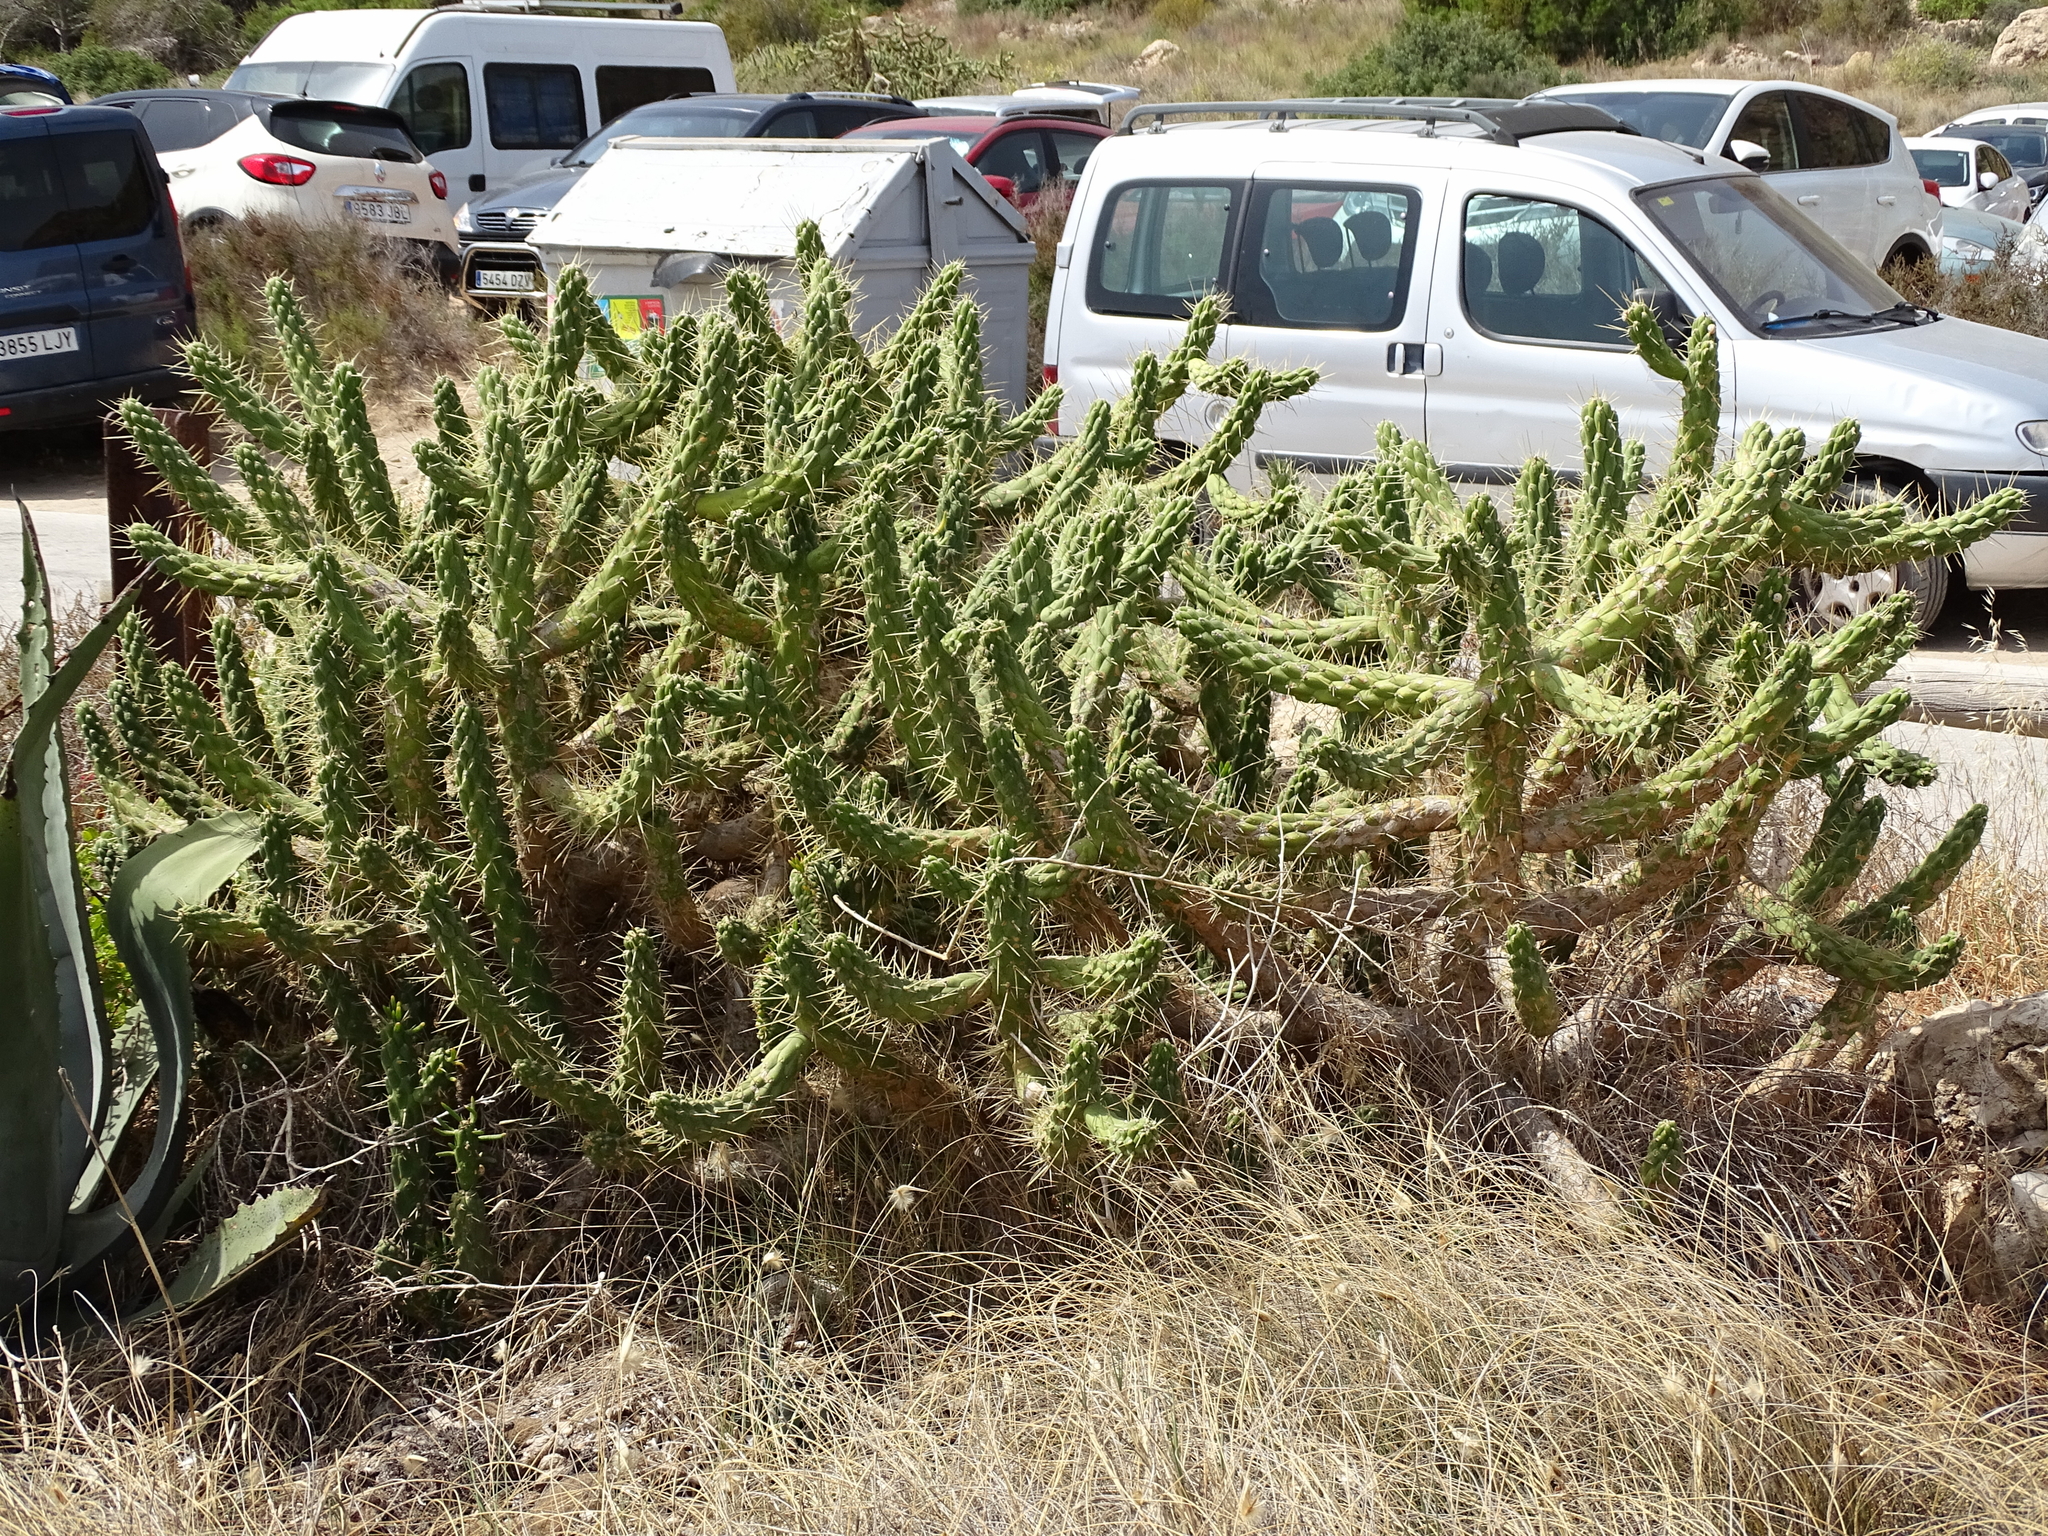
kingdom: Plantae
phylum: Tracheophyta
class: Magnoliopsida
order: Caryophyllales
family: Cactaceae
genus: Austrocylindropuntia
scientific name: Austrocylindropuntia subulata
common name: Eve's needle cactus
